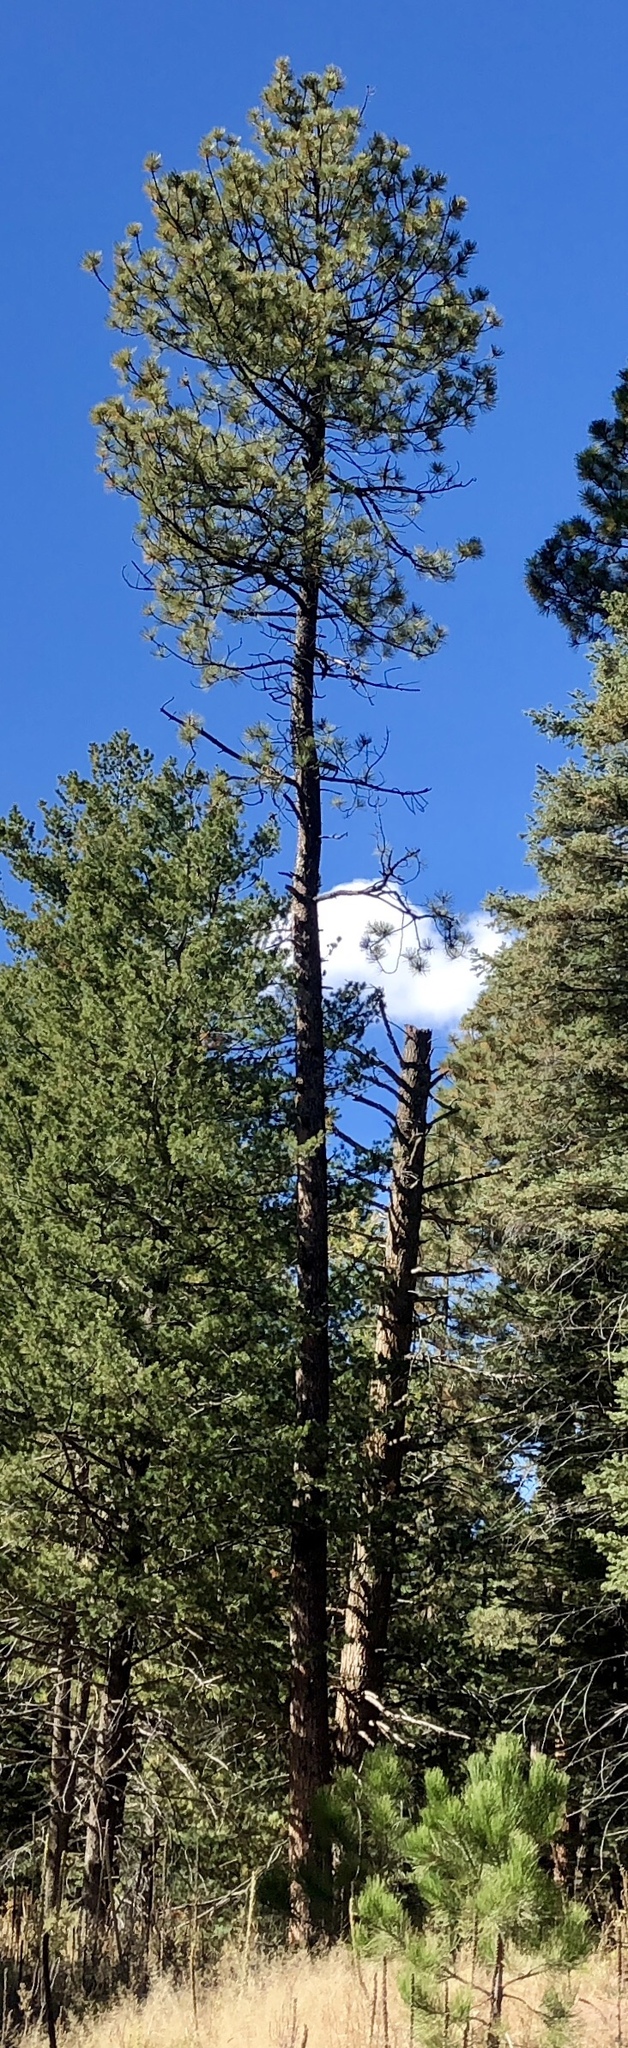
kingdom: Plantae
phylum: Tracheophyta
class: Pinopsida
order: Pinales
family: Pinaceae
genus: Pinus
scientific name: Pinus ponderosa
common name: Western yellow-pine
